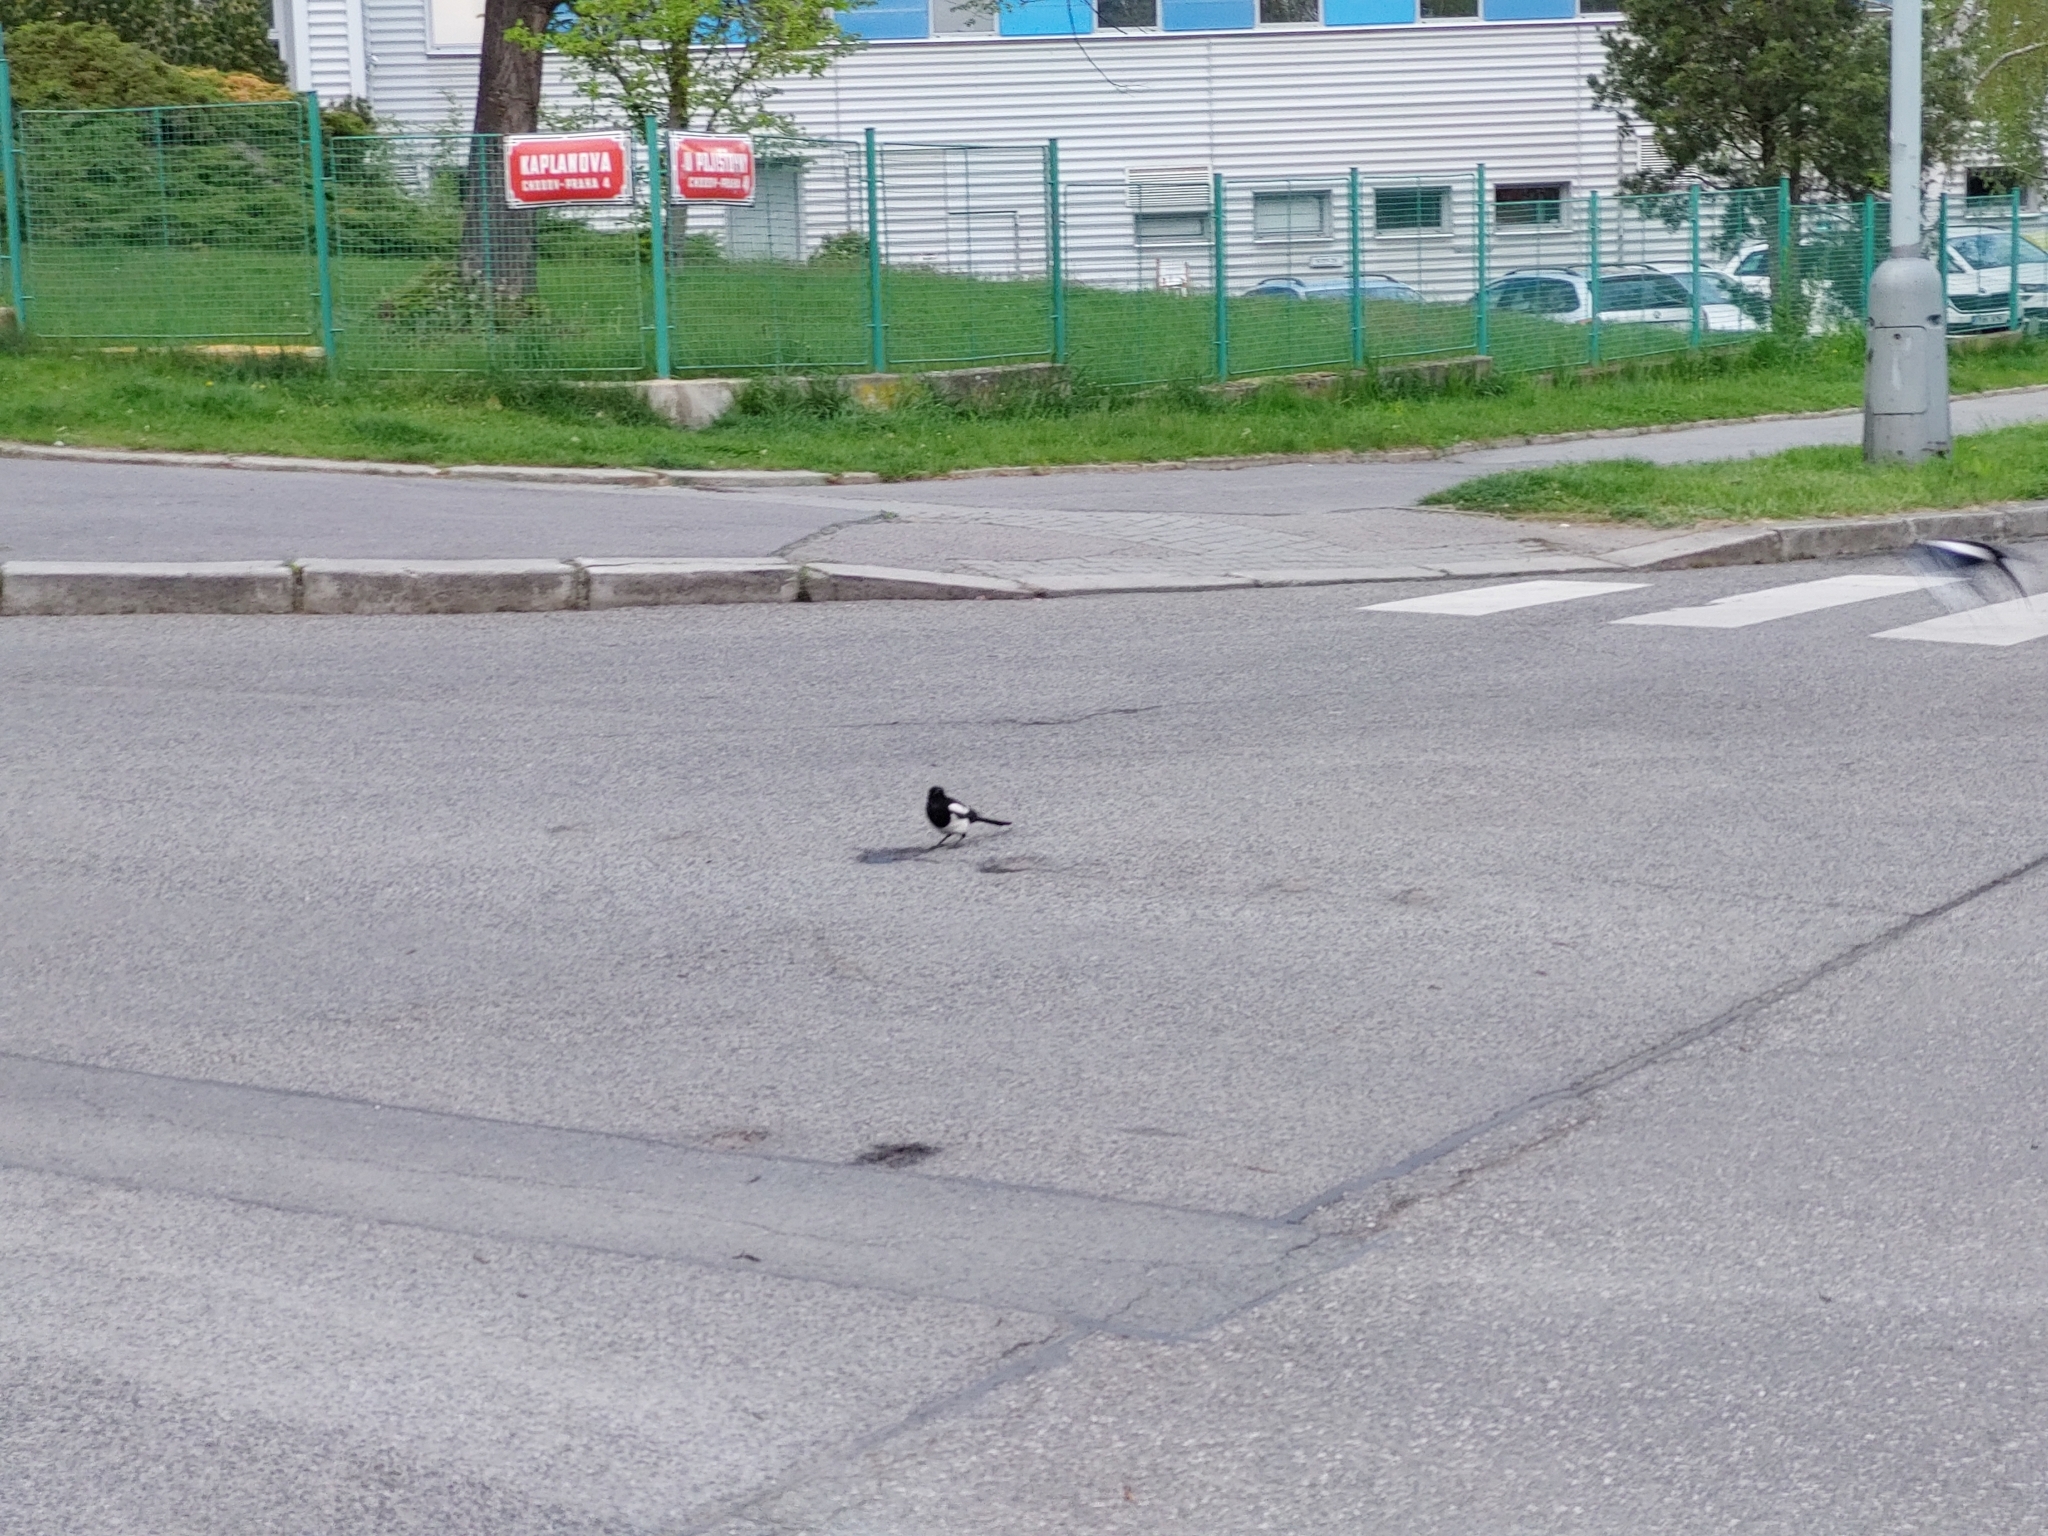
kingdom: Animalia
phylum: Chordata
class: Aves
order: Passeriformes
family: Corvidae
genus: Pica
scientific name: Pica pica
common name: Eurasian magpie
